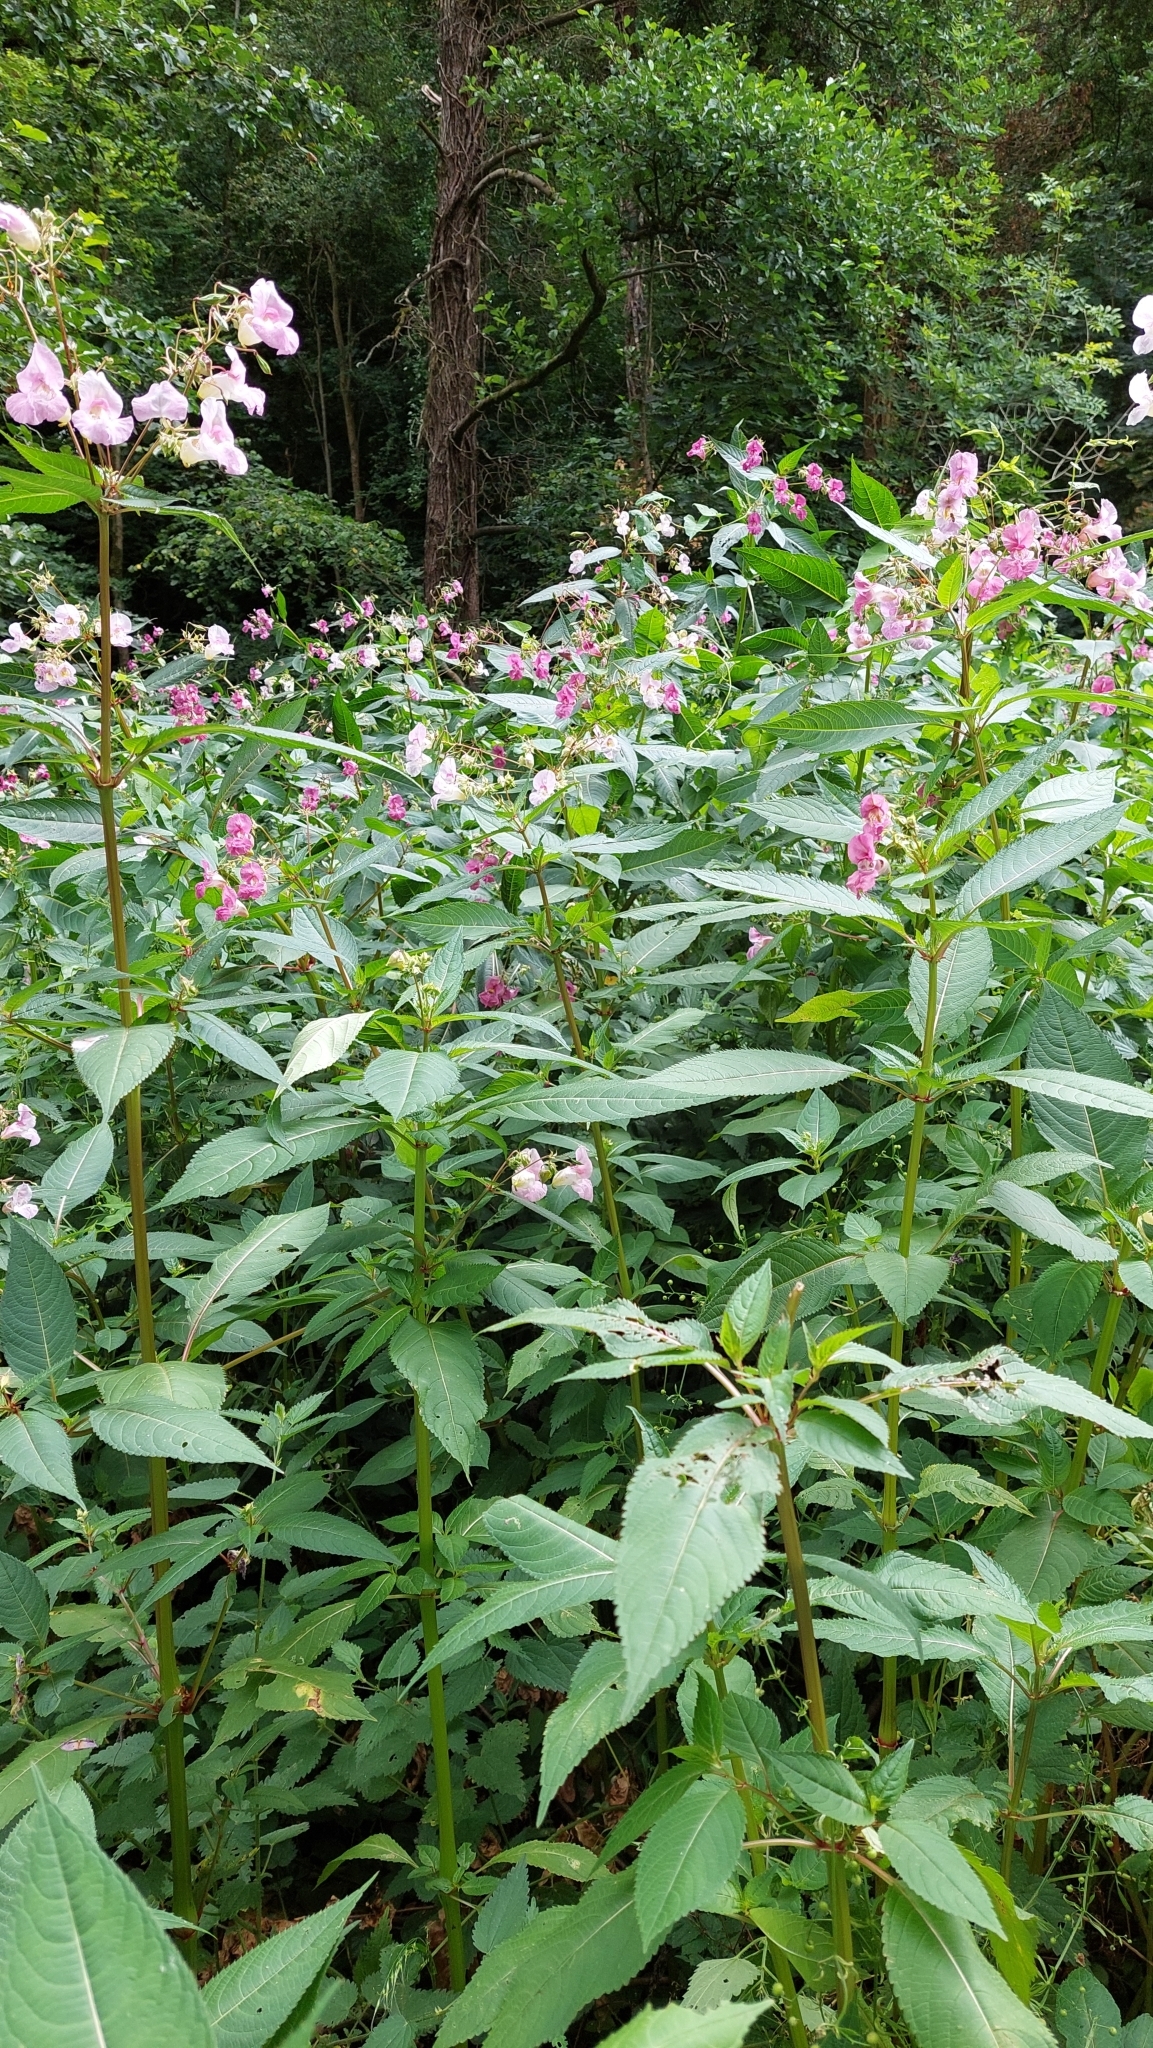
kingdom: Plantae
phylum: Tracheophyta
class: Magnoliopsida
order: Ericales
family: Balsaminaceae
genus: Impatiens
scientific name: Impatiens glandulifera
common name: Himalayan balsam
